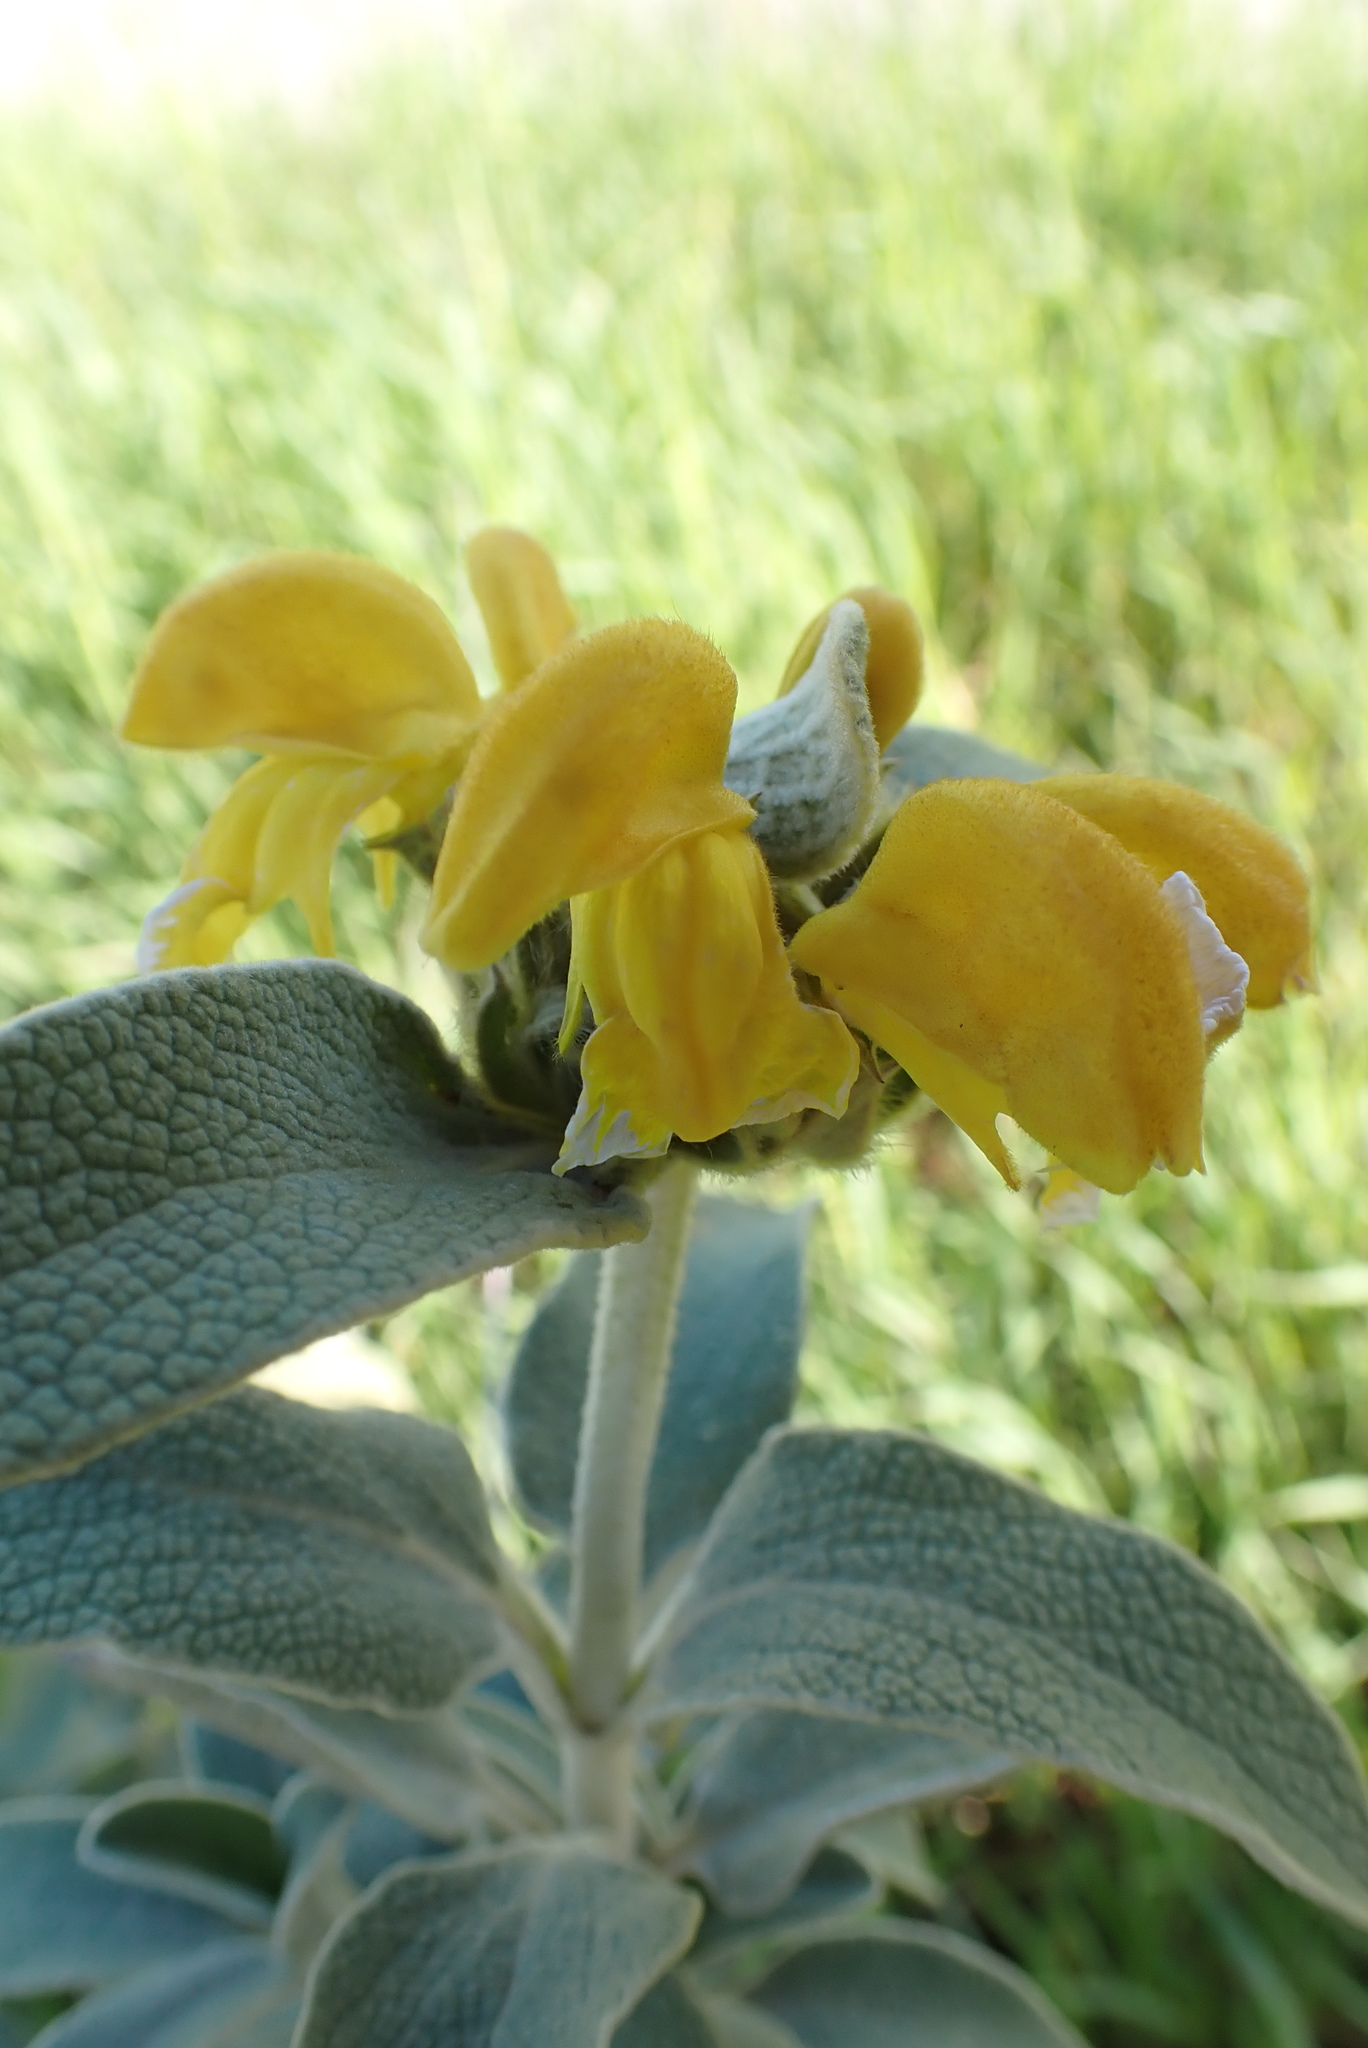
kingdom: Plantae
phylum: Tracheophyta
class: Magnoliopsida
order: Lamiales
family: Lamiaceae
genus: Phlomis
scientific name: Phlomis fruticosa
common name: Jerusalem sage
